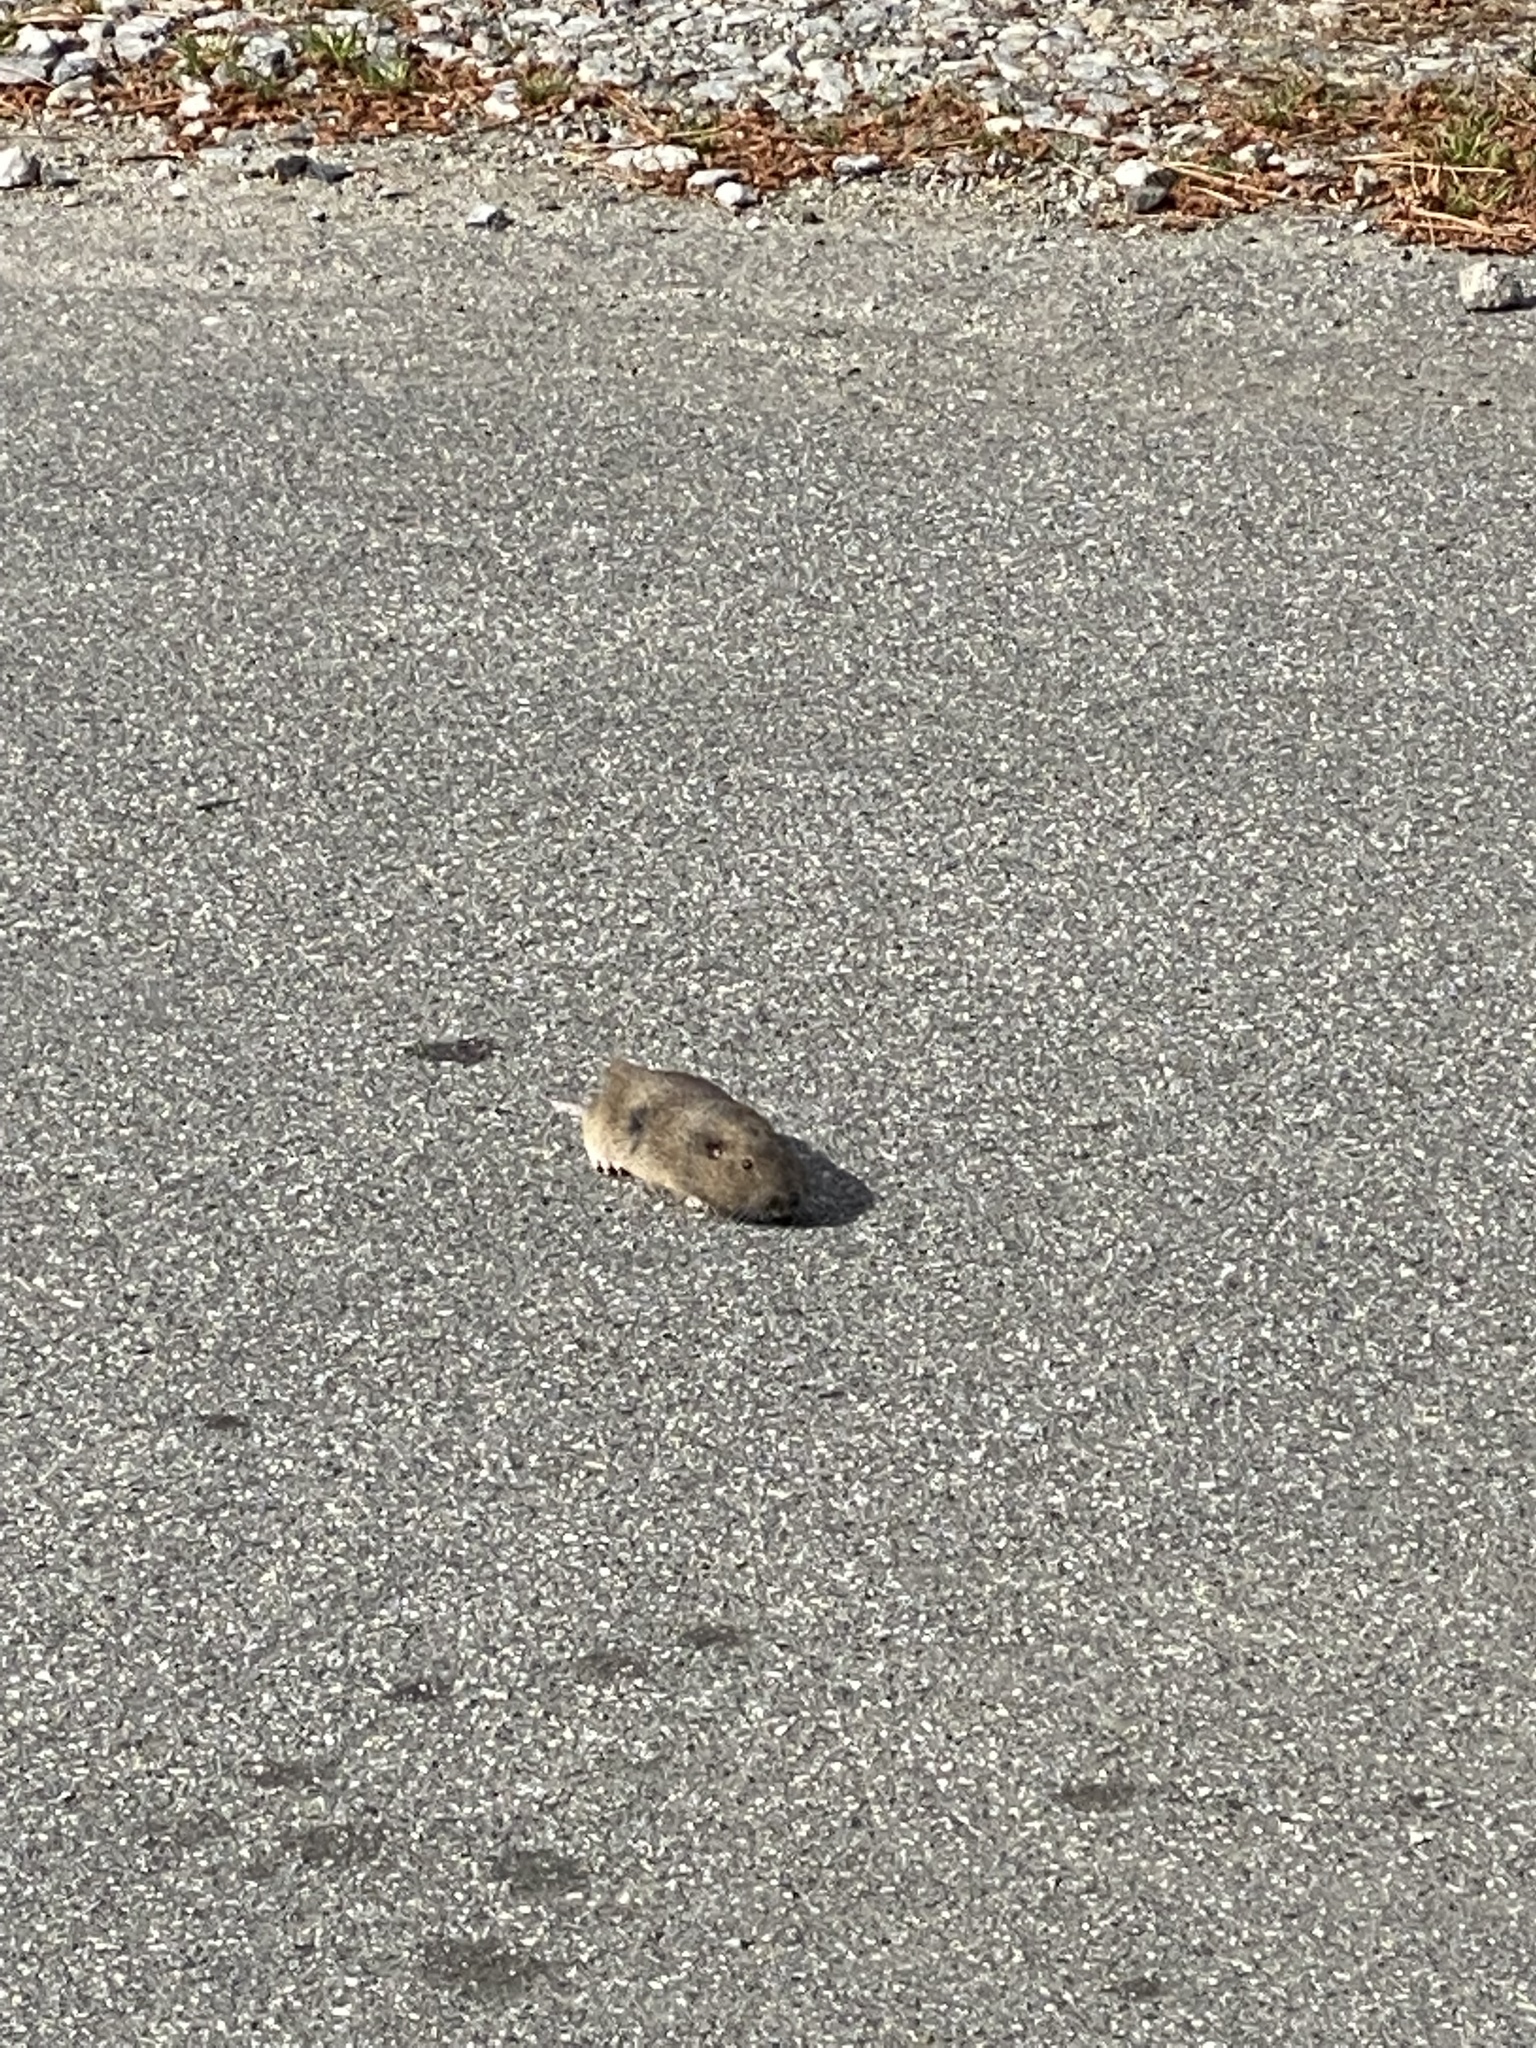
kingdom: Animalia
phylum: Chordata
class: Mammalia
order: Rodentia
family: Geomyidae
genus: Thomomys
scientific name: Thomomys bottae
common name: Botta's pocket gopher
